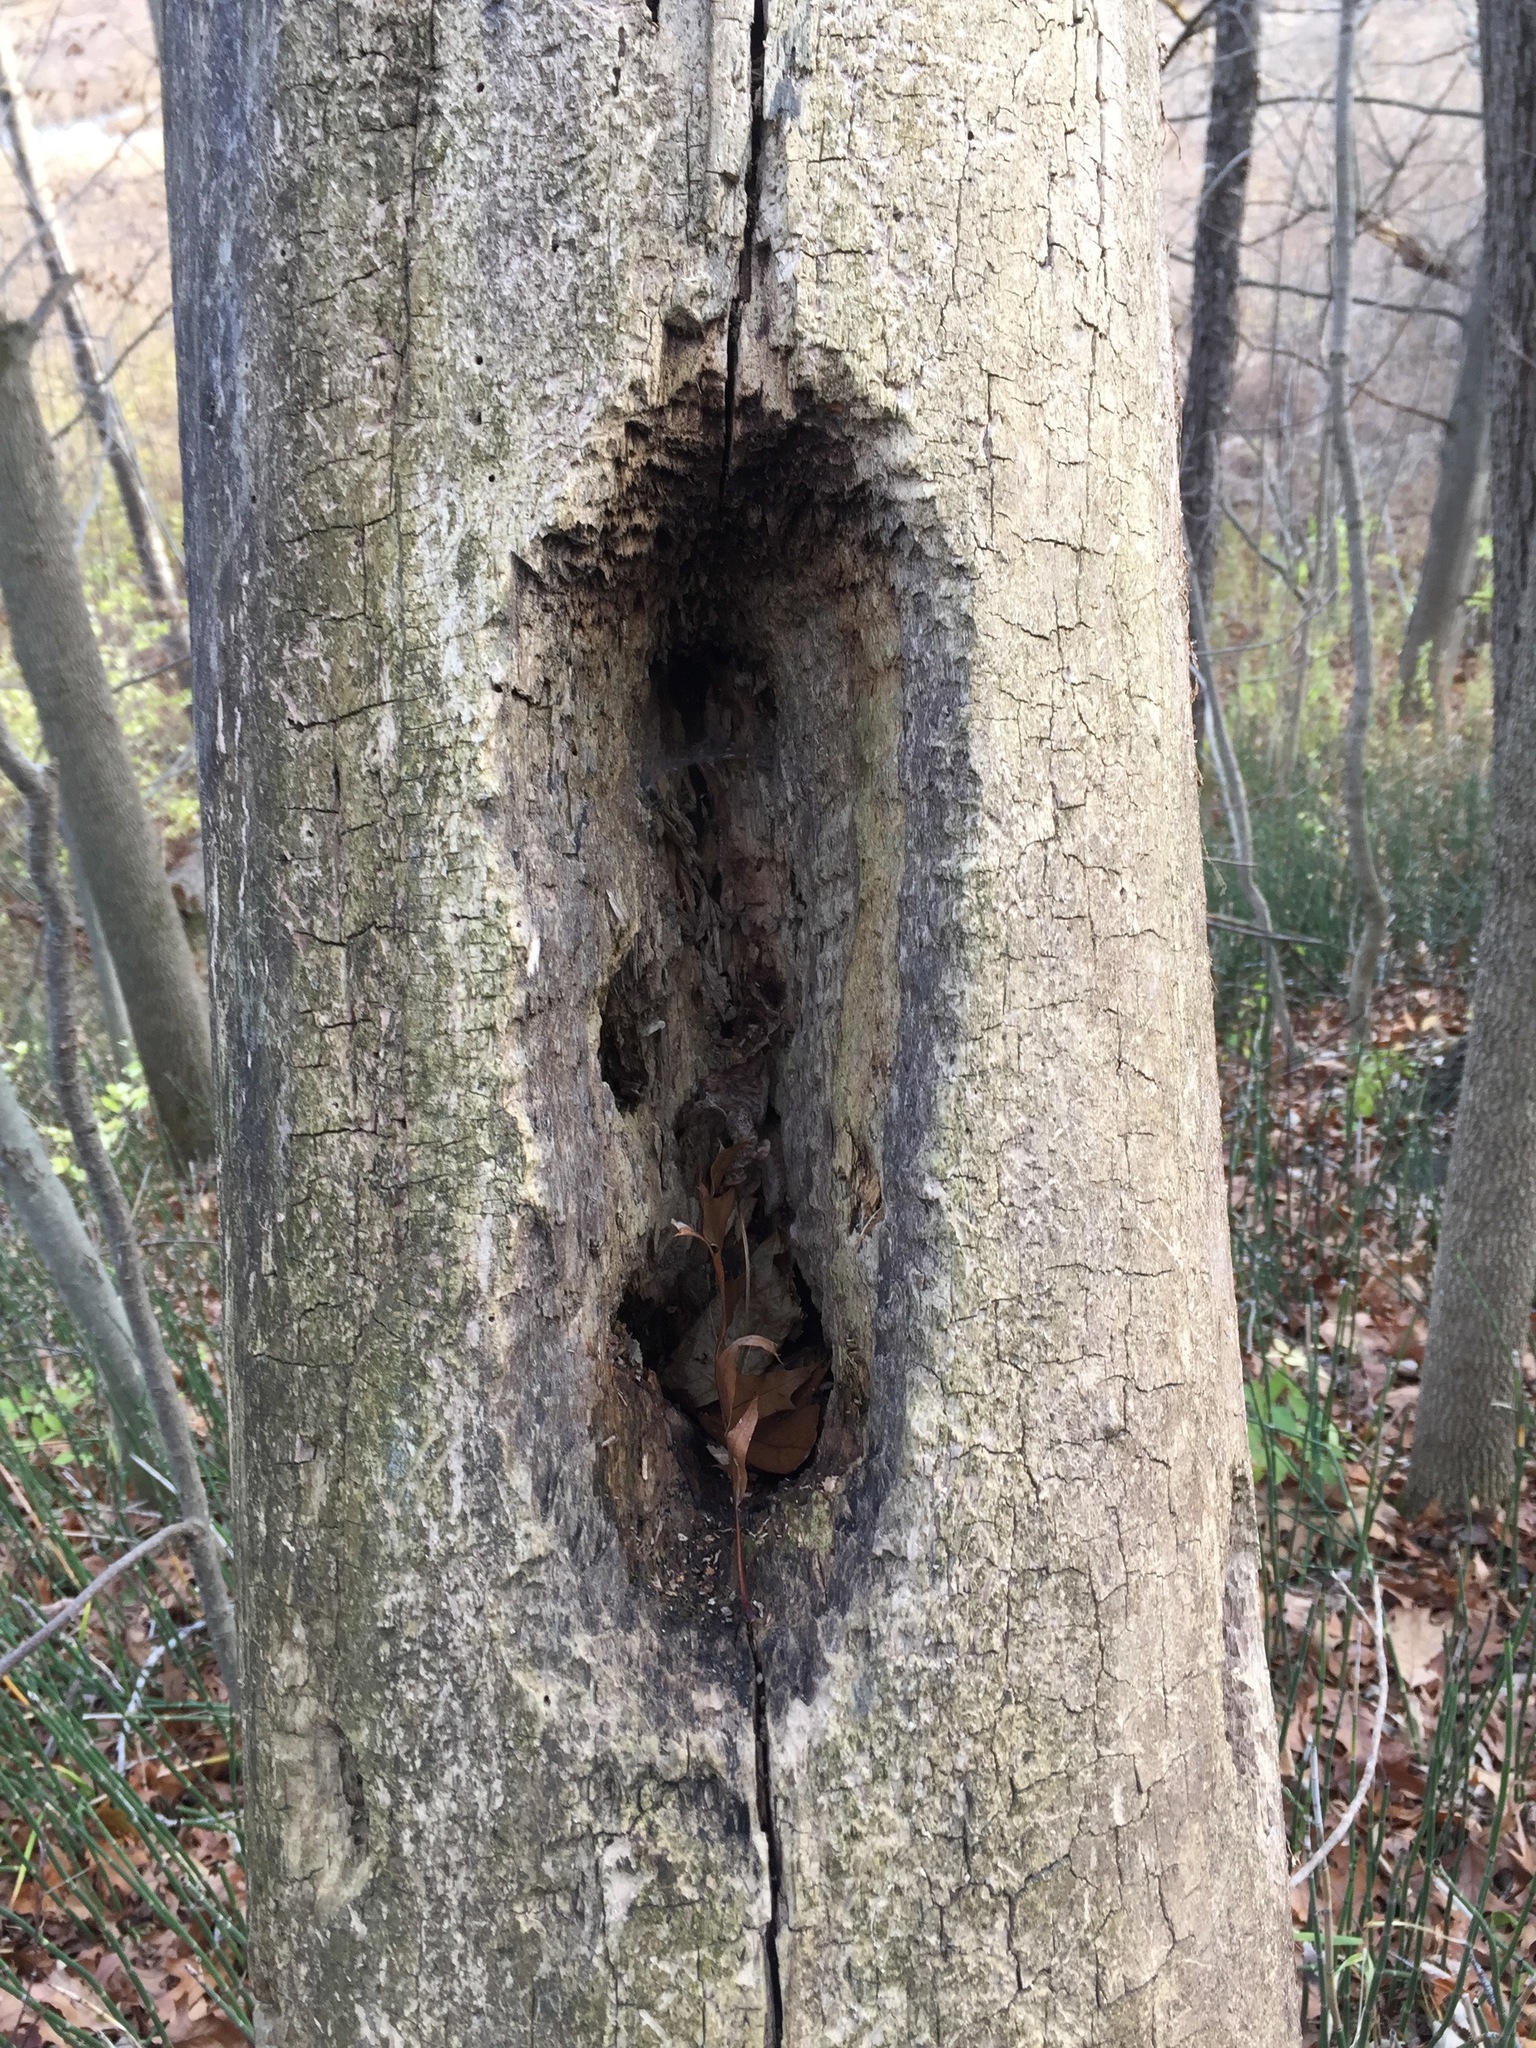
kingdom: Animalia
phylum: Chordata
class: Aves
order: Piciformes
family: Picidae
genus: Dryocopus
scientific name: Dryocopus pileatus
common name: Pileated woodpecker
